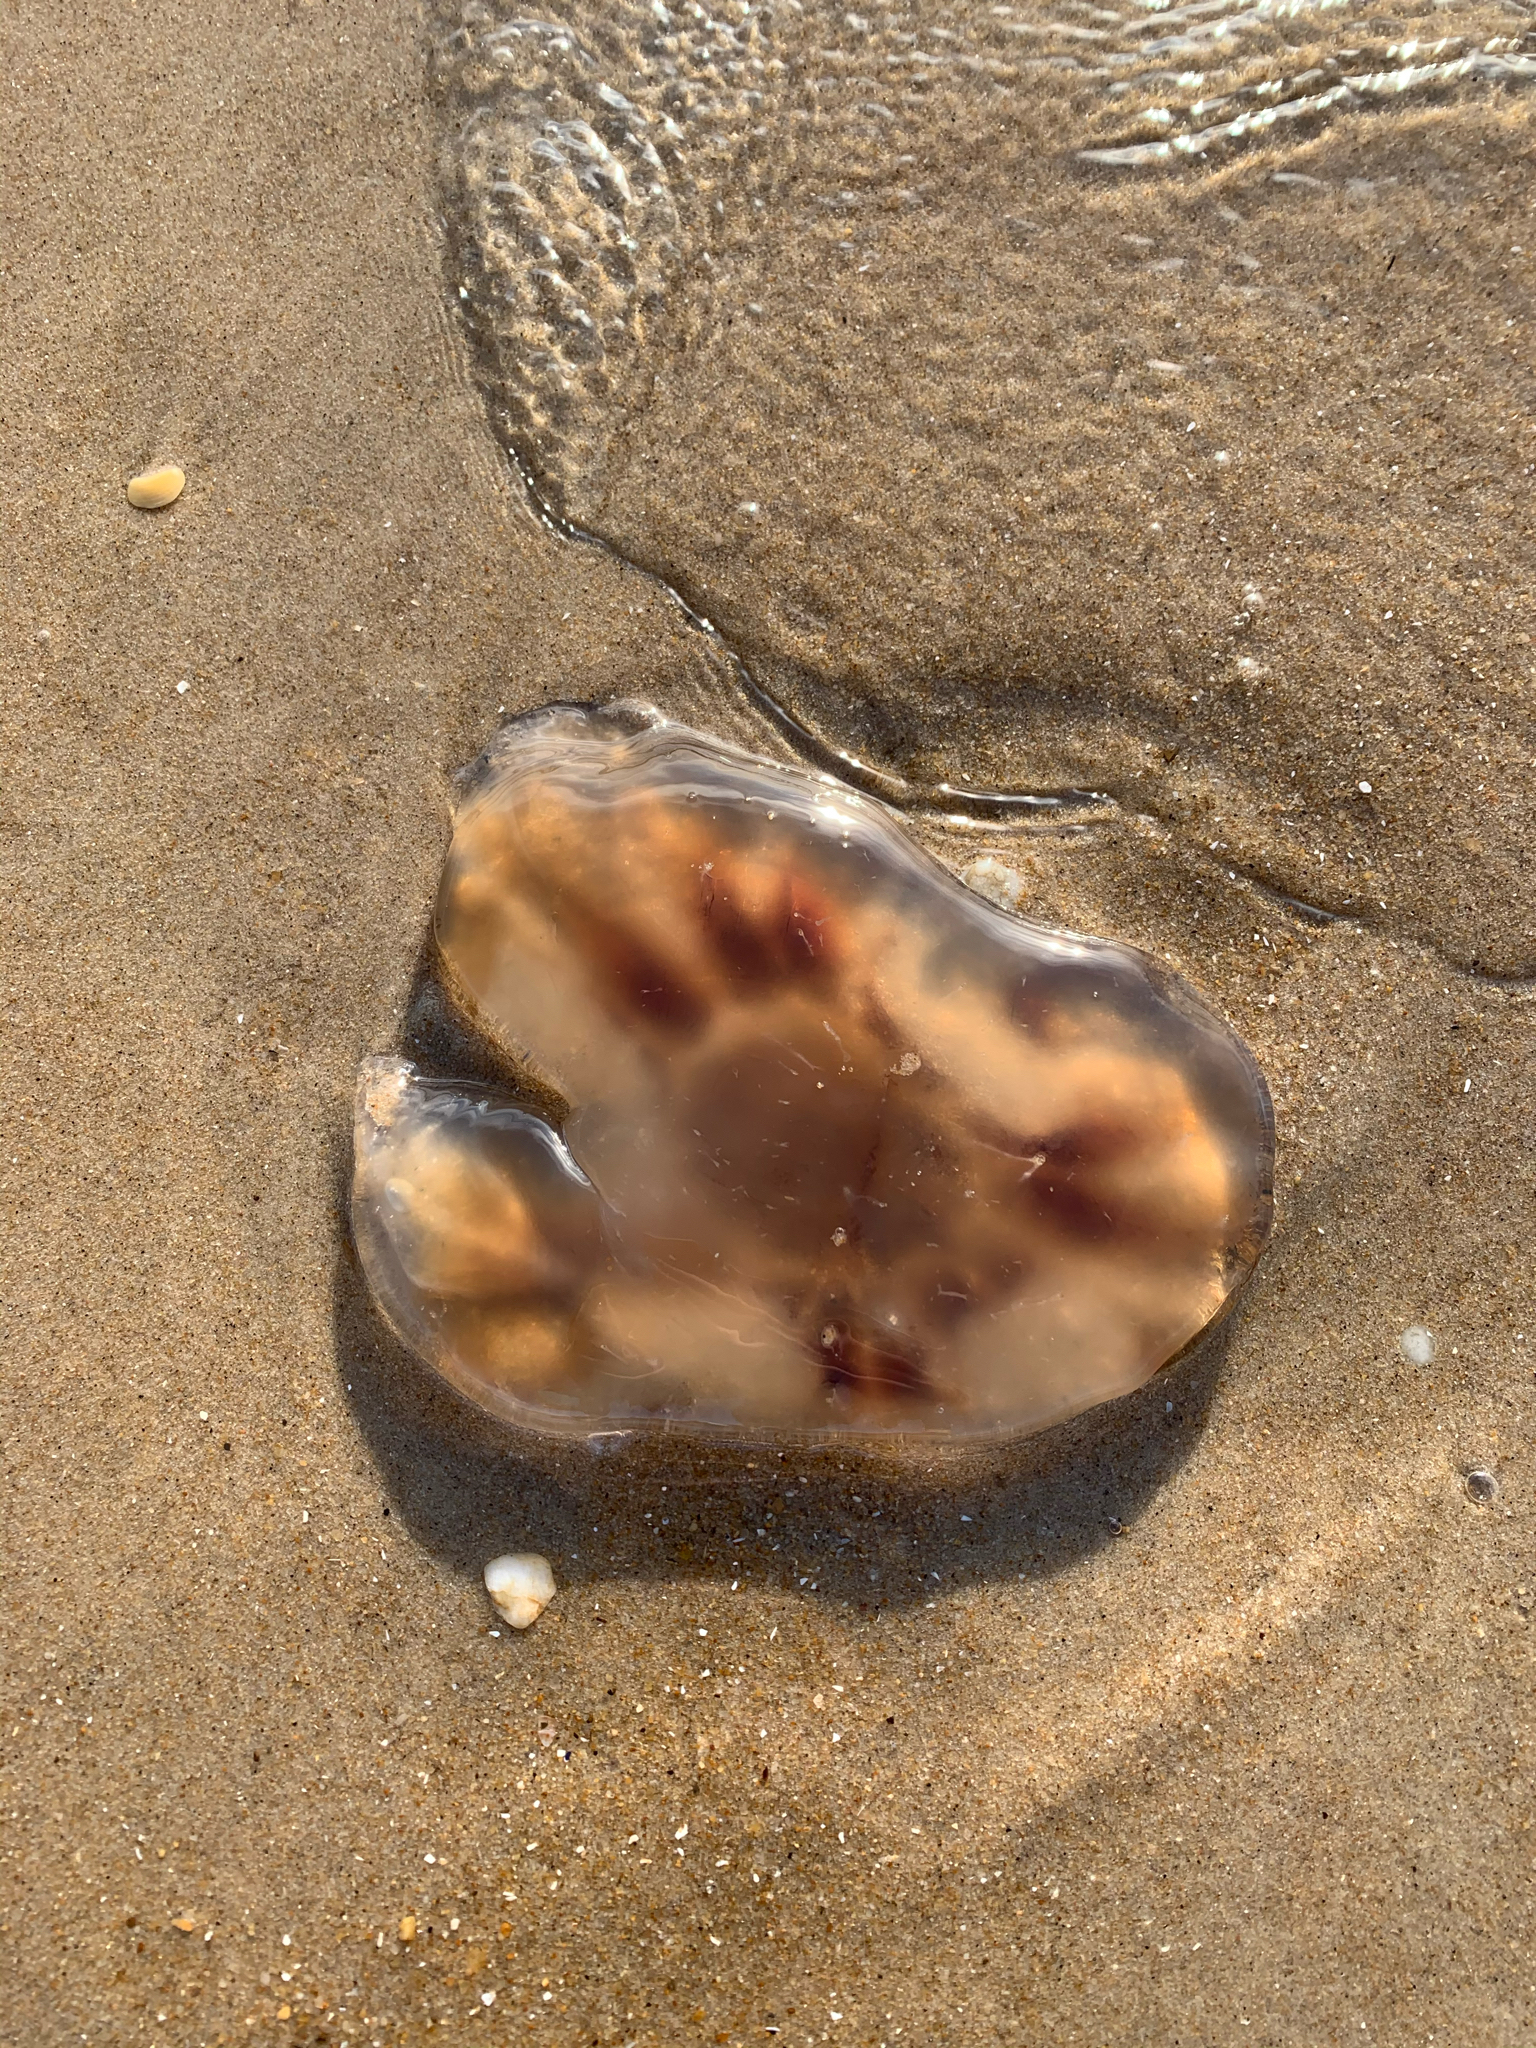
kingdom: Animalia
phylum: Cnidaria
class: Scyphozoa
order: Semaeostomeae
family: Cyaneidae
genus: Cyanea
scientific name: Cyanea fulva
